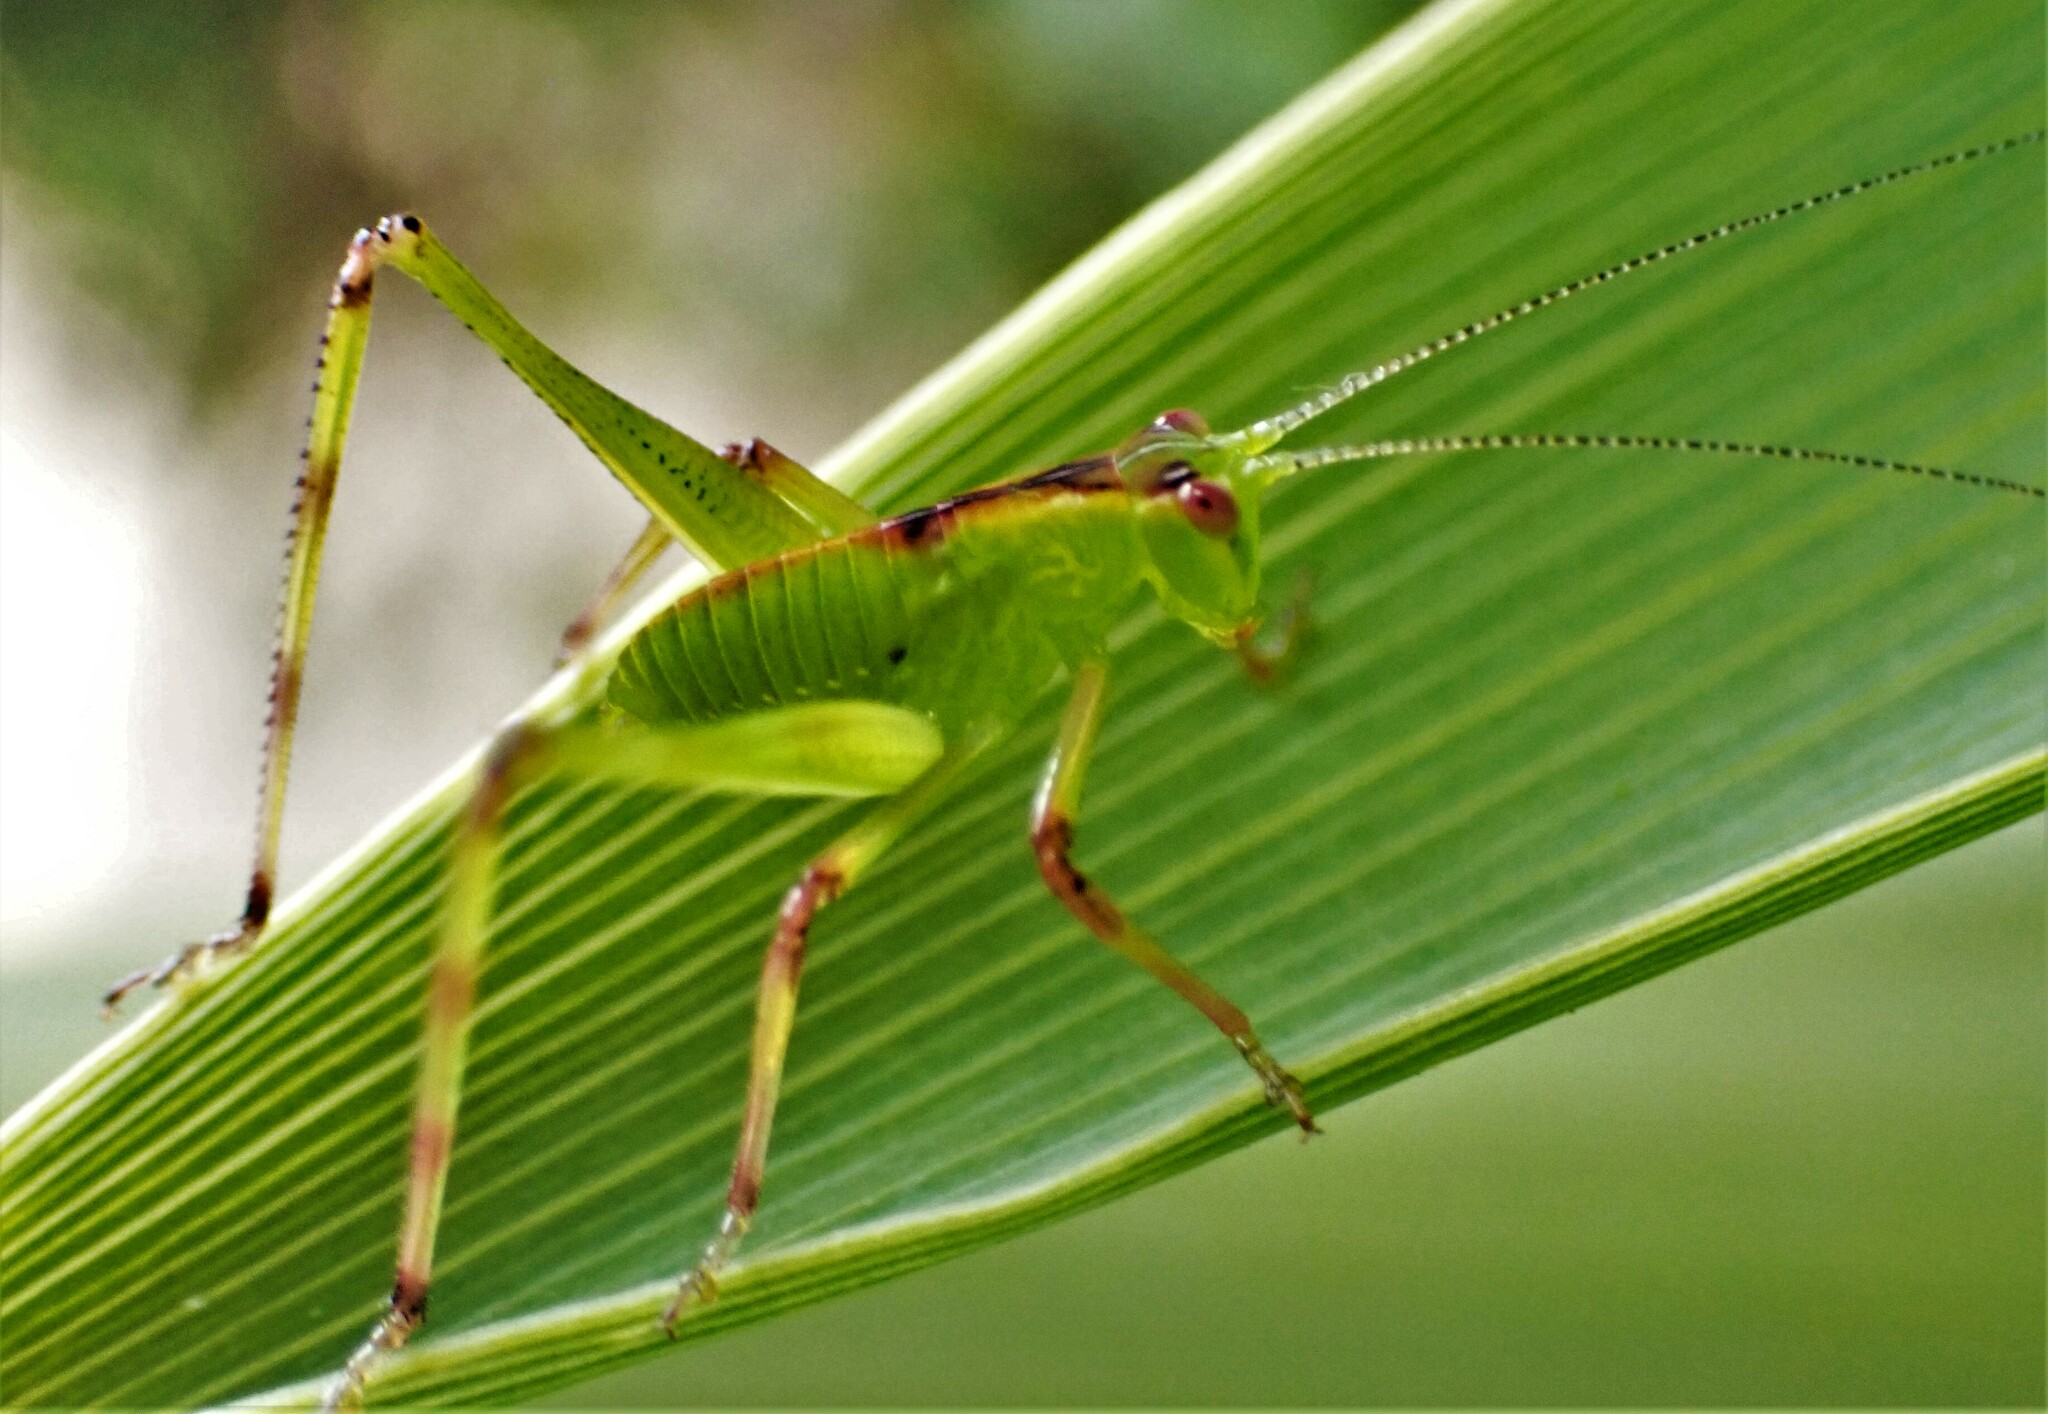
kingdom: Animalia
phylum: Arthropoda
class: Insecta
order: Orthoptera
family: Tettigoniidae
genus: Caedicia
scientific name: Caedicia simplex
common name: Common garden katydid
